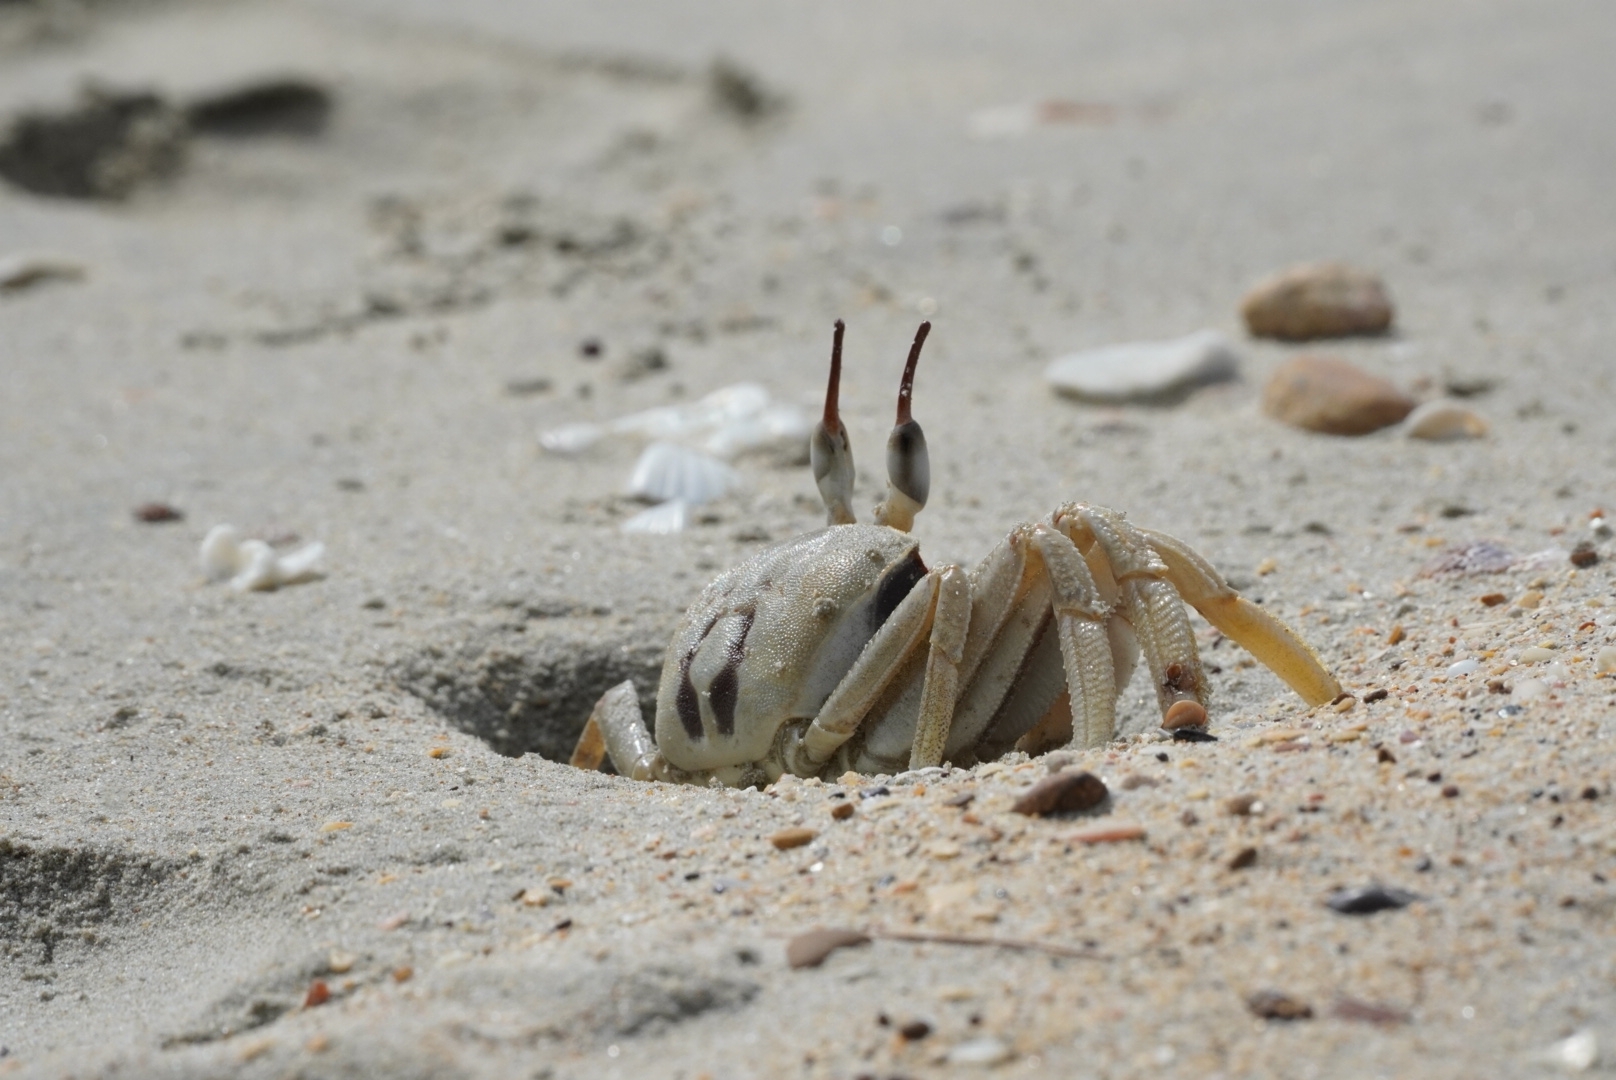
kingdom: Animalia
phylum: Arthropoda
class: Malacostraca
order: Decapoda
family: Ocypodidae
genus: Ocypode
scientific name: Ocypode ceratophthalmus
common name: Indo-pacific ghost crab
